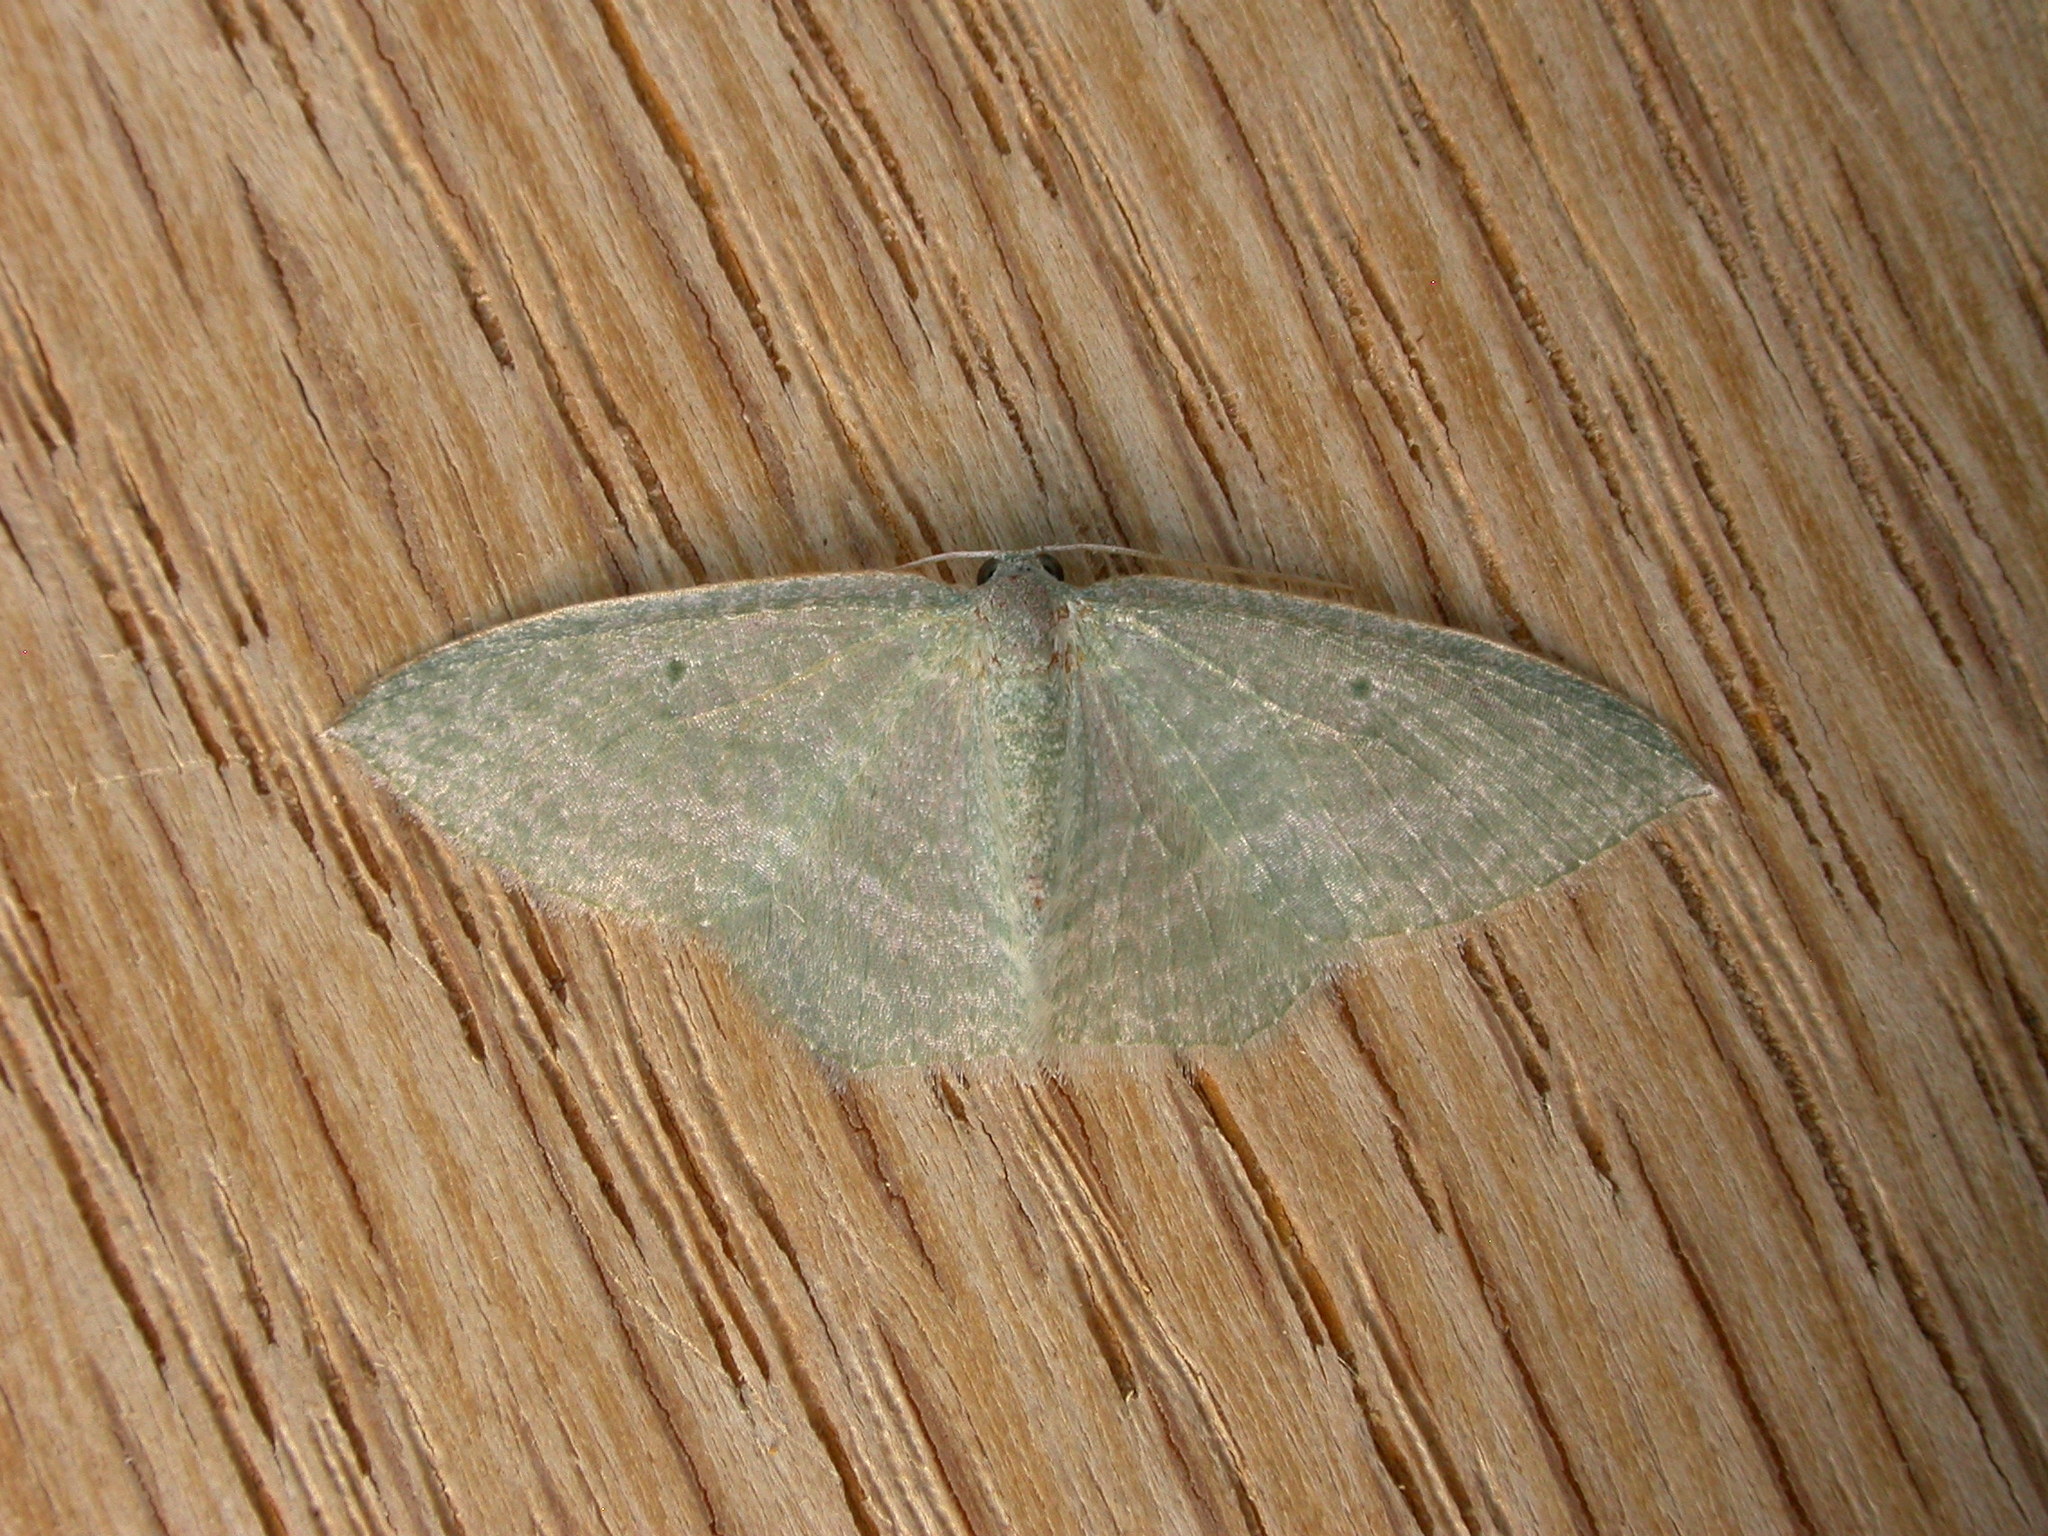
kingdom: Animalia
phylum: Arthropoda
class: Insecta
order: Lepidoptera
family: Geometridae
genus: Poecilasthena
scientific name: Poecilasthena thalassias
